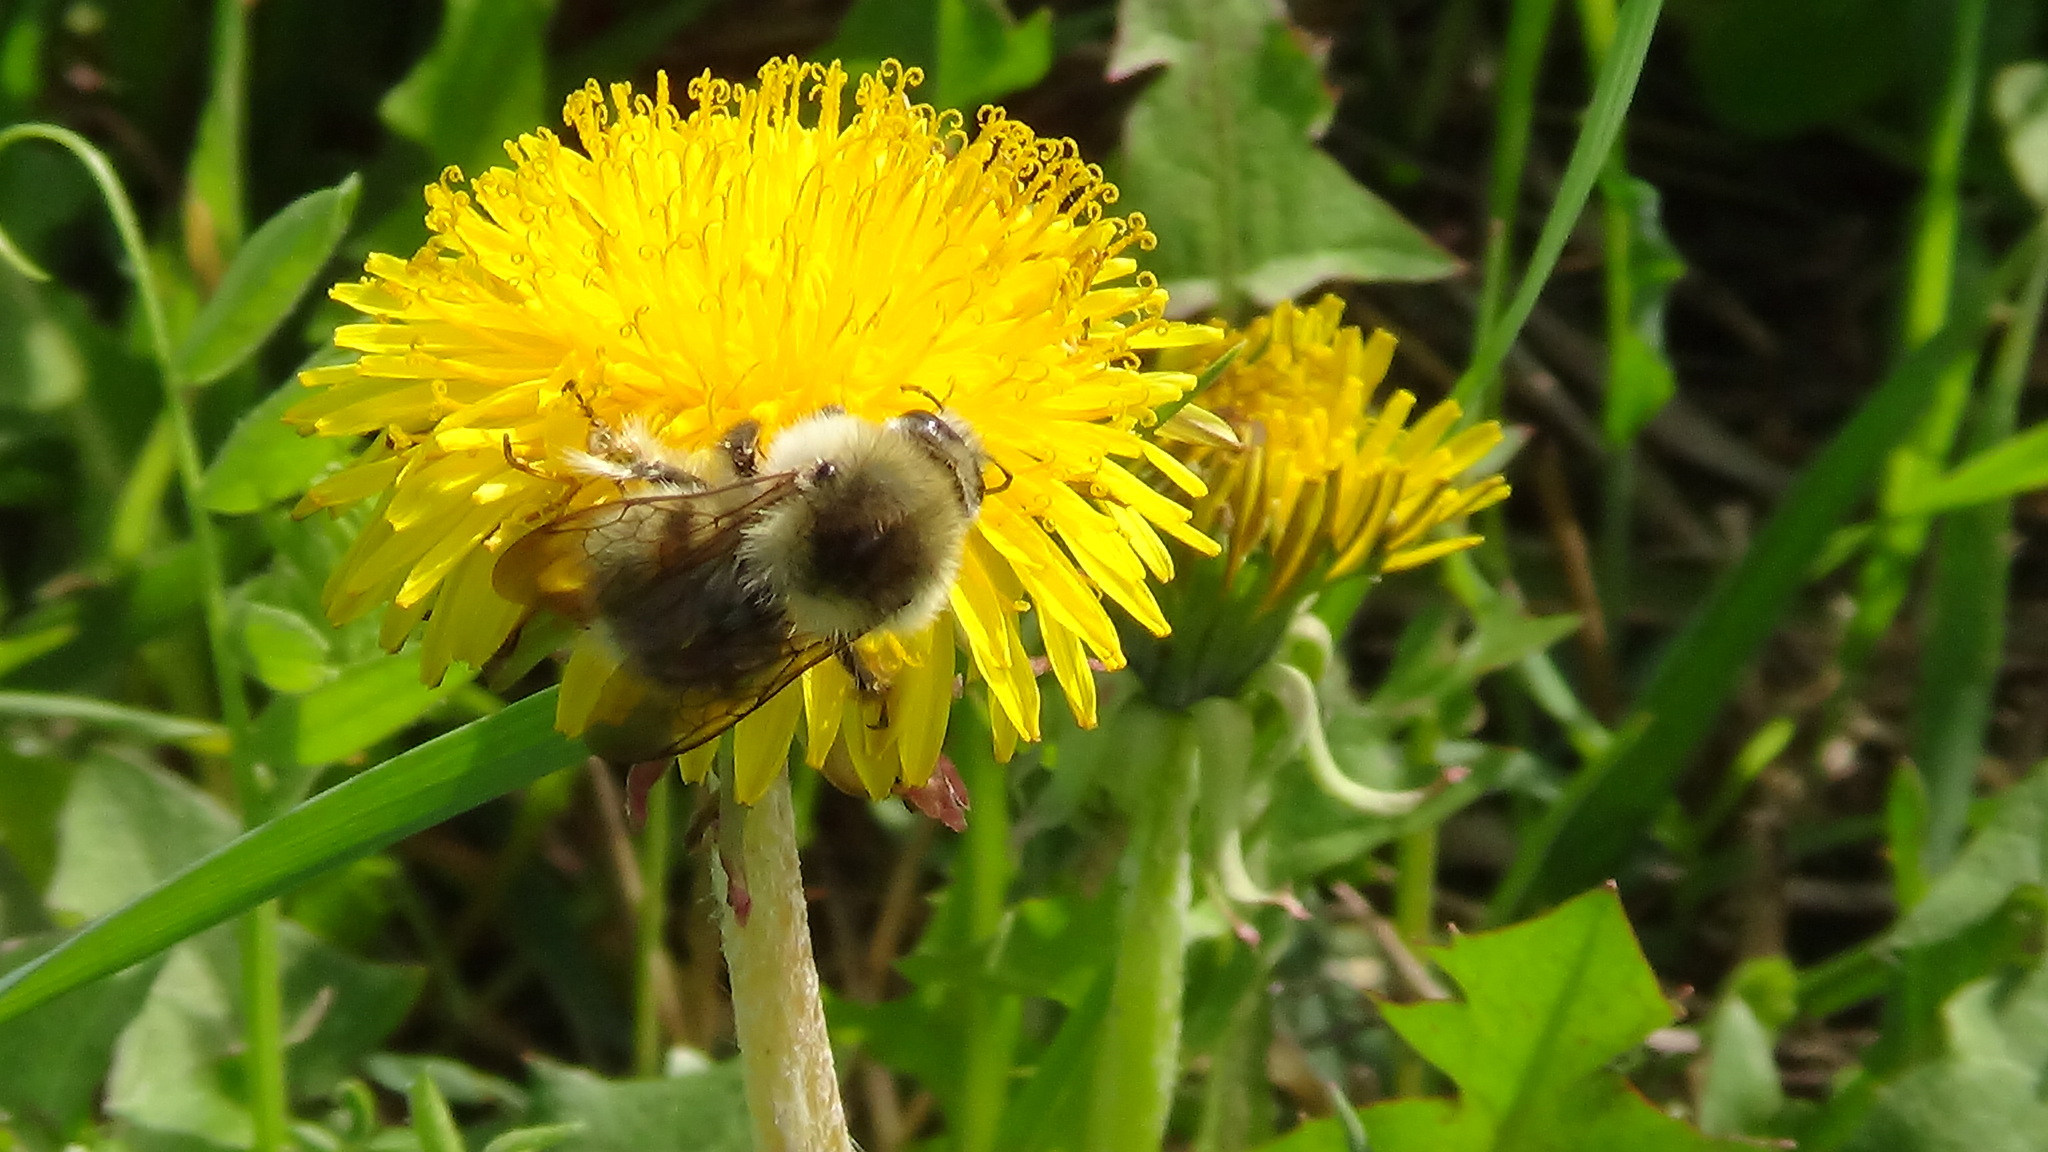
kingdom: Animalia
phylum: Arthropoda
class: Insecta
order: Hymenoptera
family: Apidae
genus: Bombus
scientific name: Bombus veteranus
